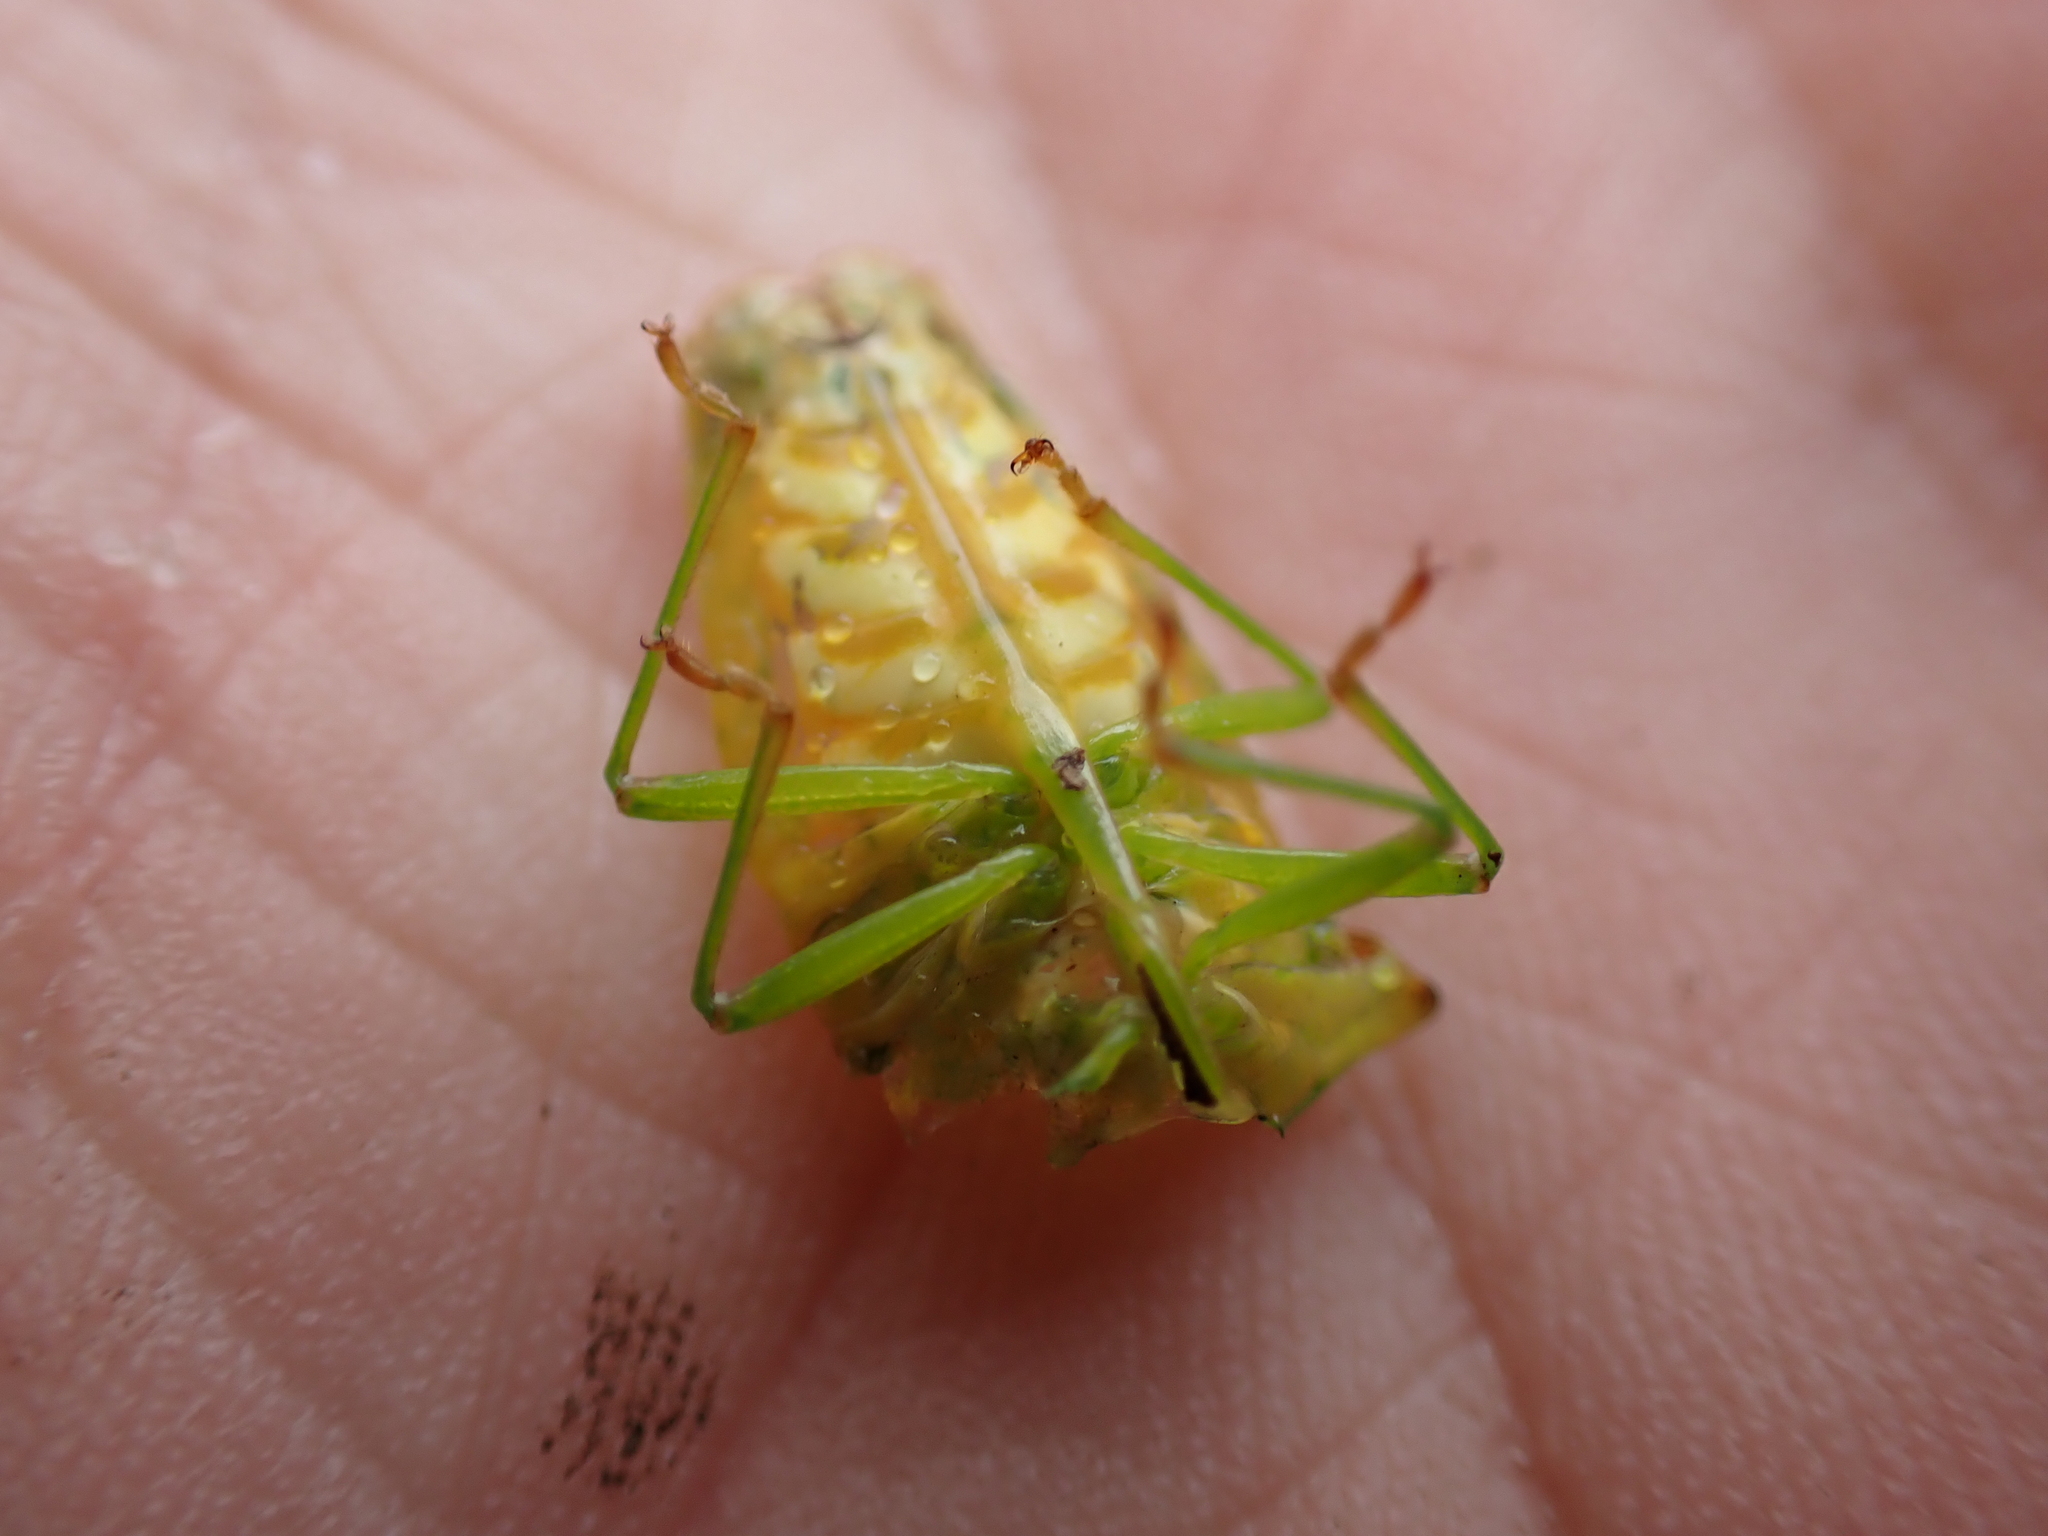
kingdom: Animalia
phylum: Arthropoda
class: Insecta
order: Hemiptera
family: Acanthosomatidae
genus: Acanthosoma
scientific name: Acanthosoma haemorrhoidale
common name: Hawthorn shieldbug
